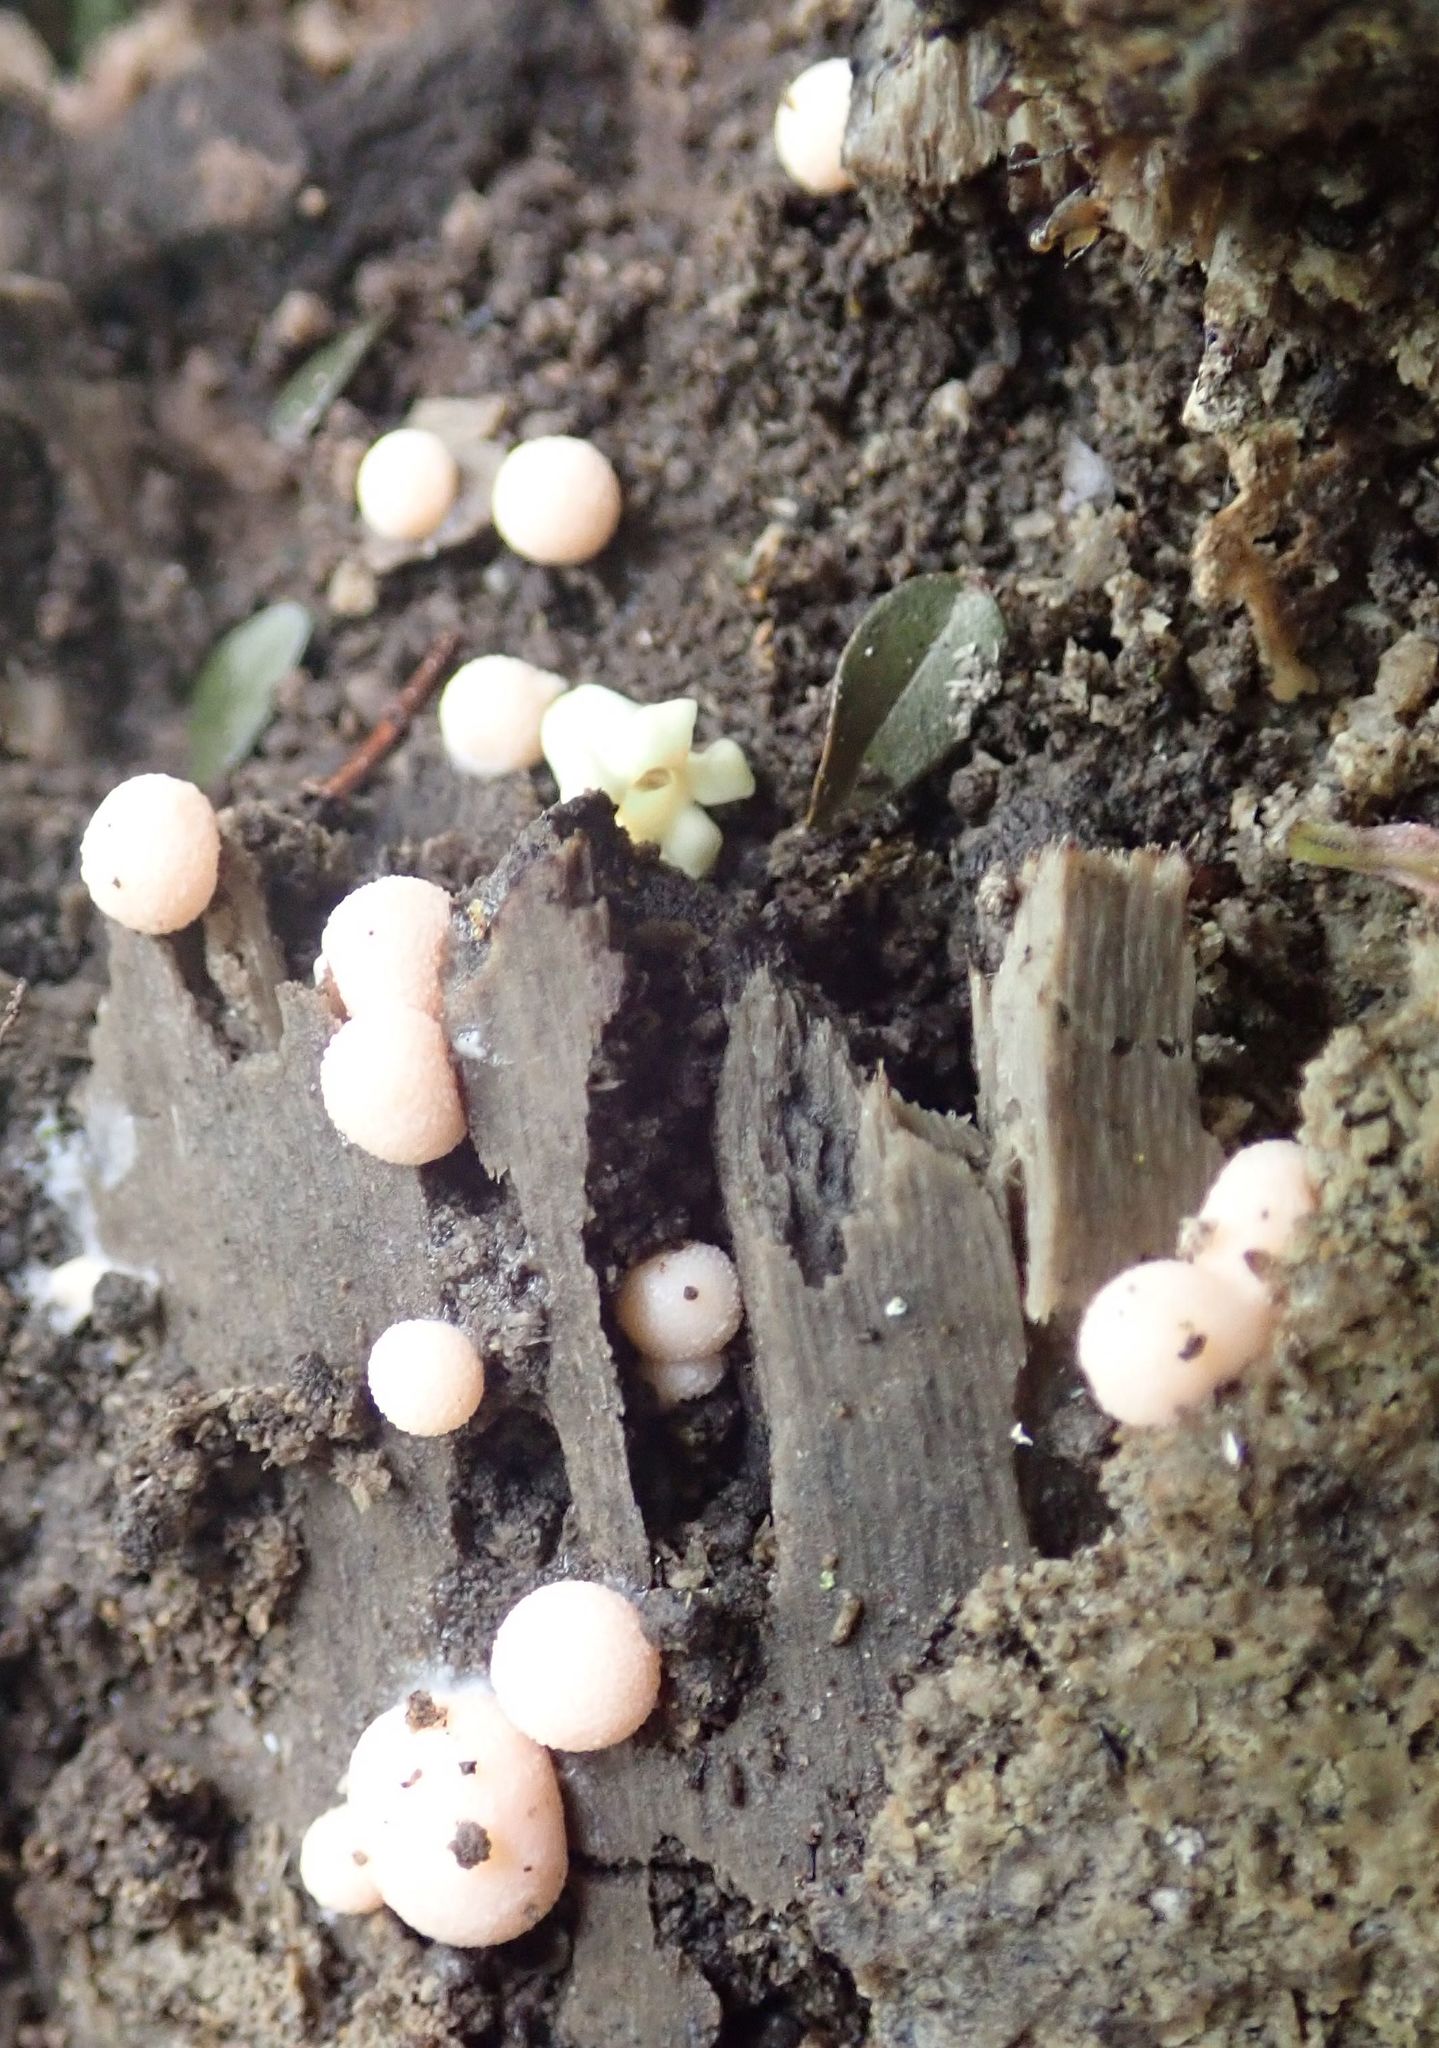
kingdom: Protozoa
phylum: Mycetozoa
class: Myxomycetes
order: Cribrariales
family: Tubiferaceae
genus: Lycogala
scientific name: Lycogala epidendrum
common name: Wolf's milk
